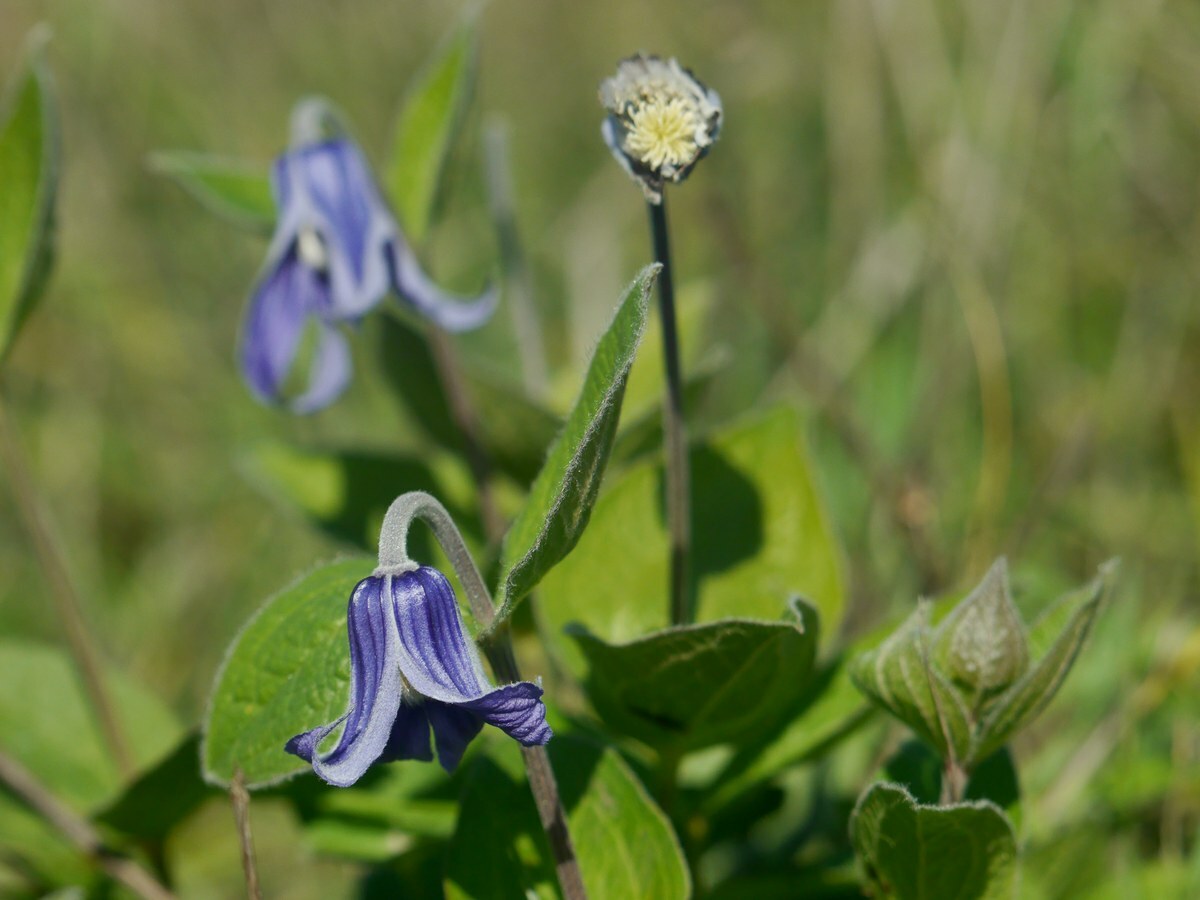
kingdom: Plantae
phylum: Tracheophyta
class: Magnoliopsida
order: Ranunculales
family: Ranunculaceae
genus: Clematis
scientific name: Clematis integrifolia
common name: Solitary clematis
